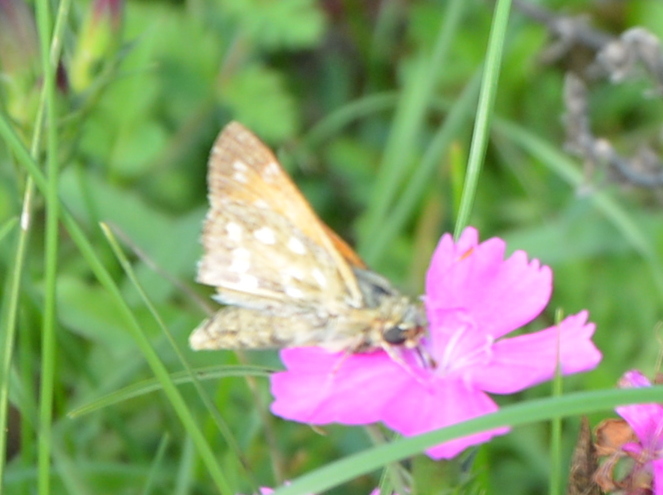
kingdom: Animalia
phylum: Arthropoda
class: Insecta
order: Lepidoptera
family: Hesperiidae
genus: Hesperia
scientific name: Hesperia comma
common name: Common branded skipper
